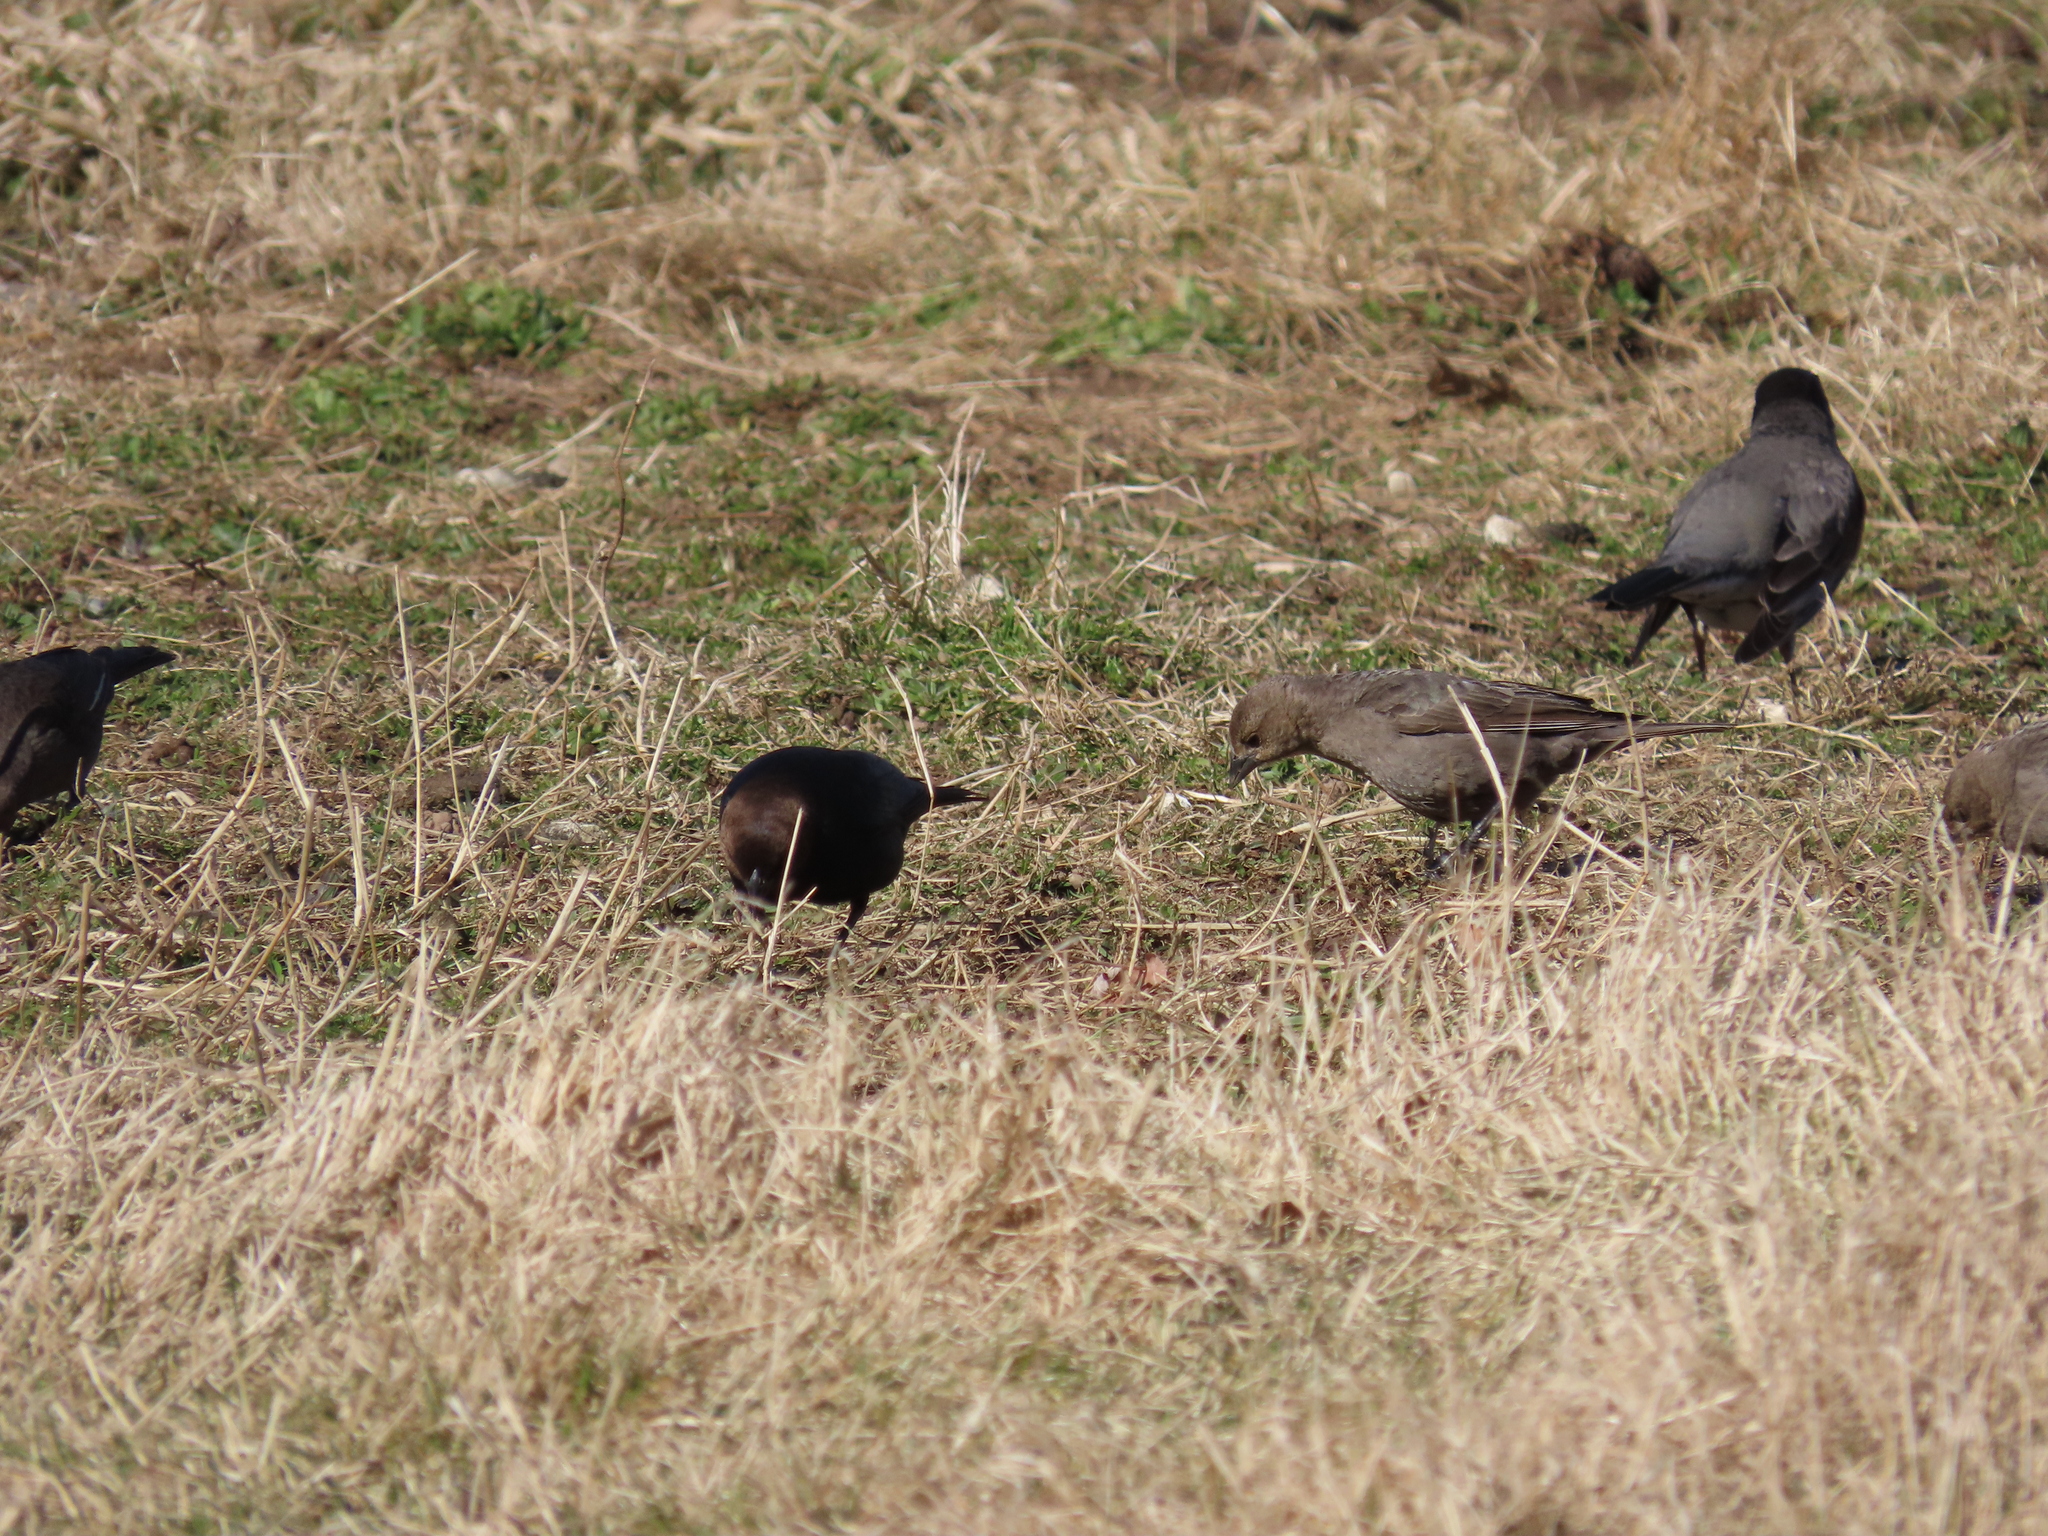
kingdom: Animalia
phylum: Chordata
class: Aves
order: Passeriformes
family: Icteridae
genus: Molothrus
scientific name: Molothrus ater
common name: Brown-headed cowbird
